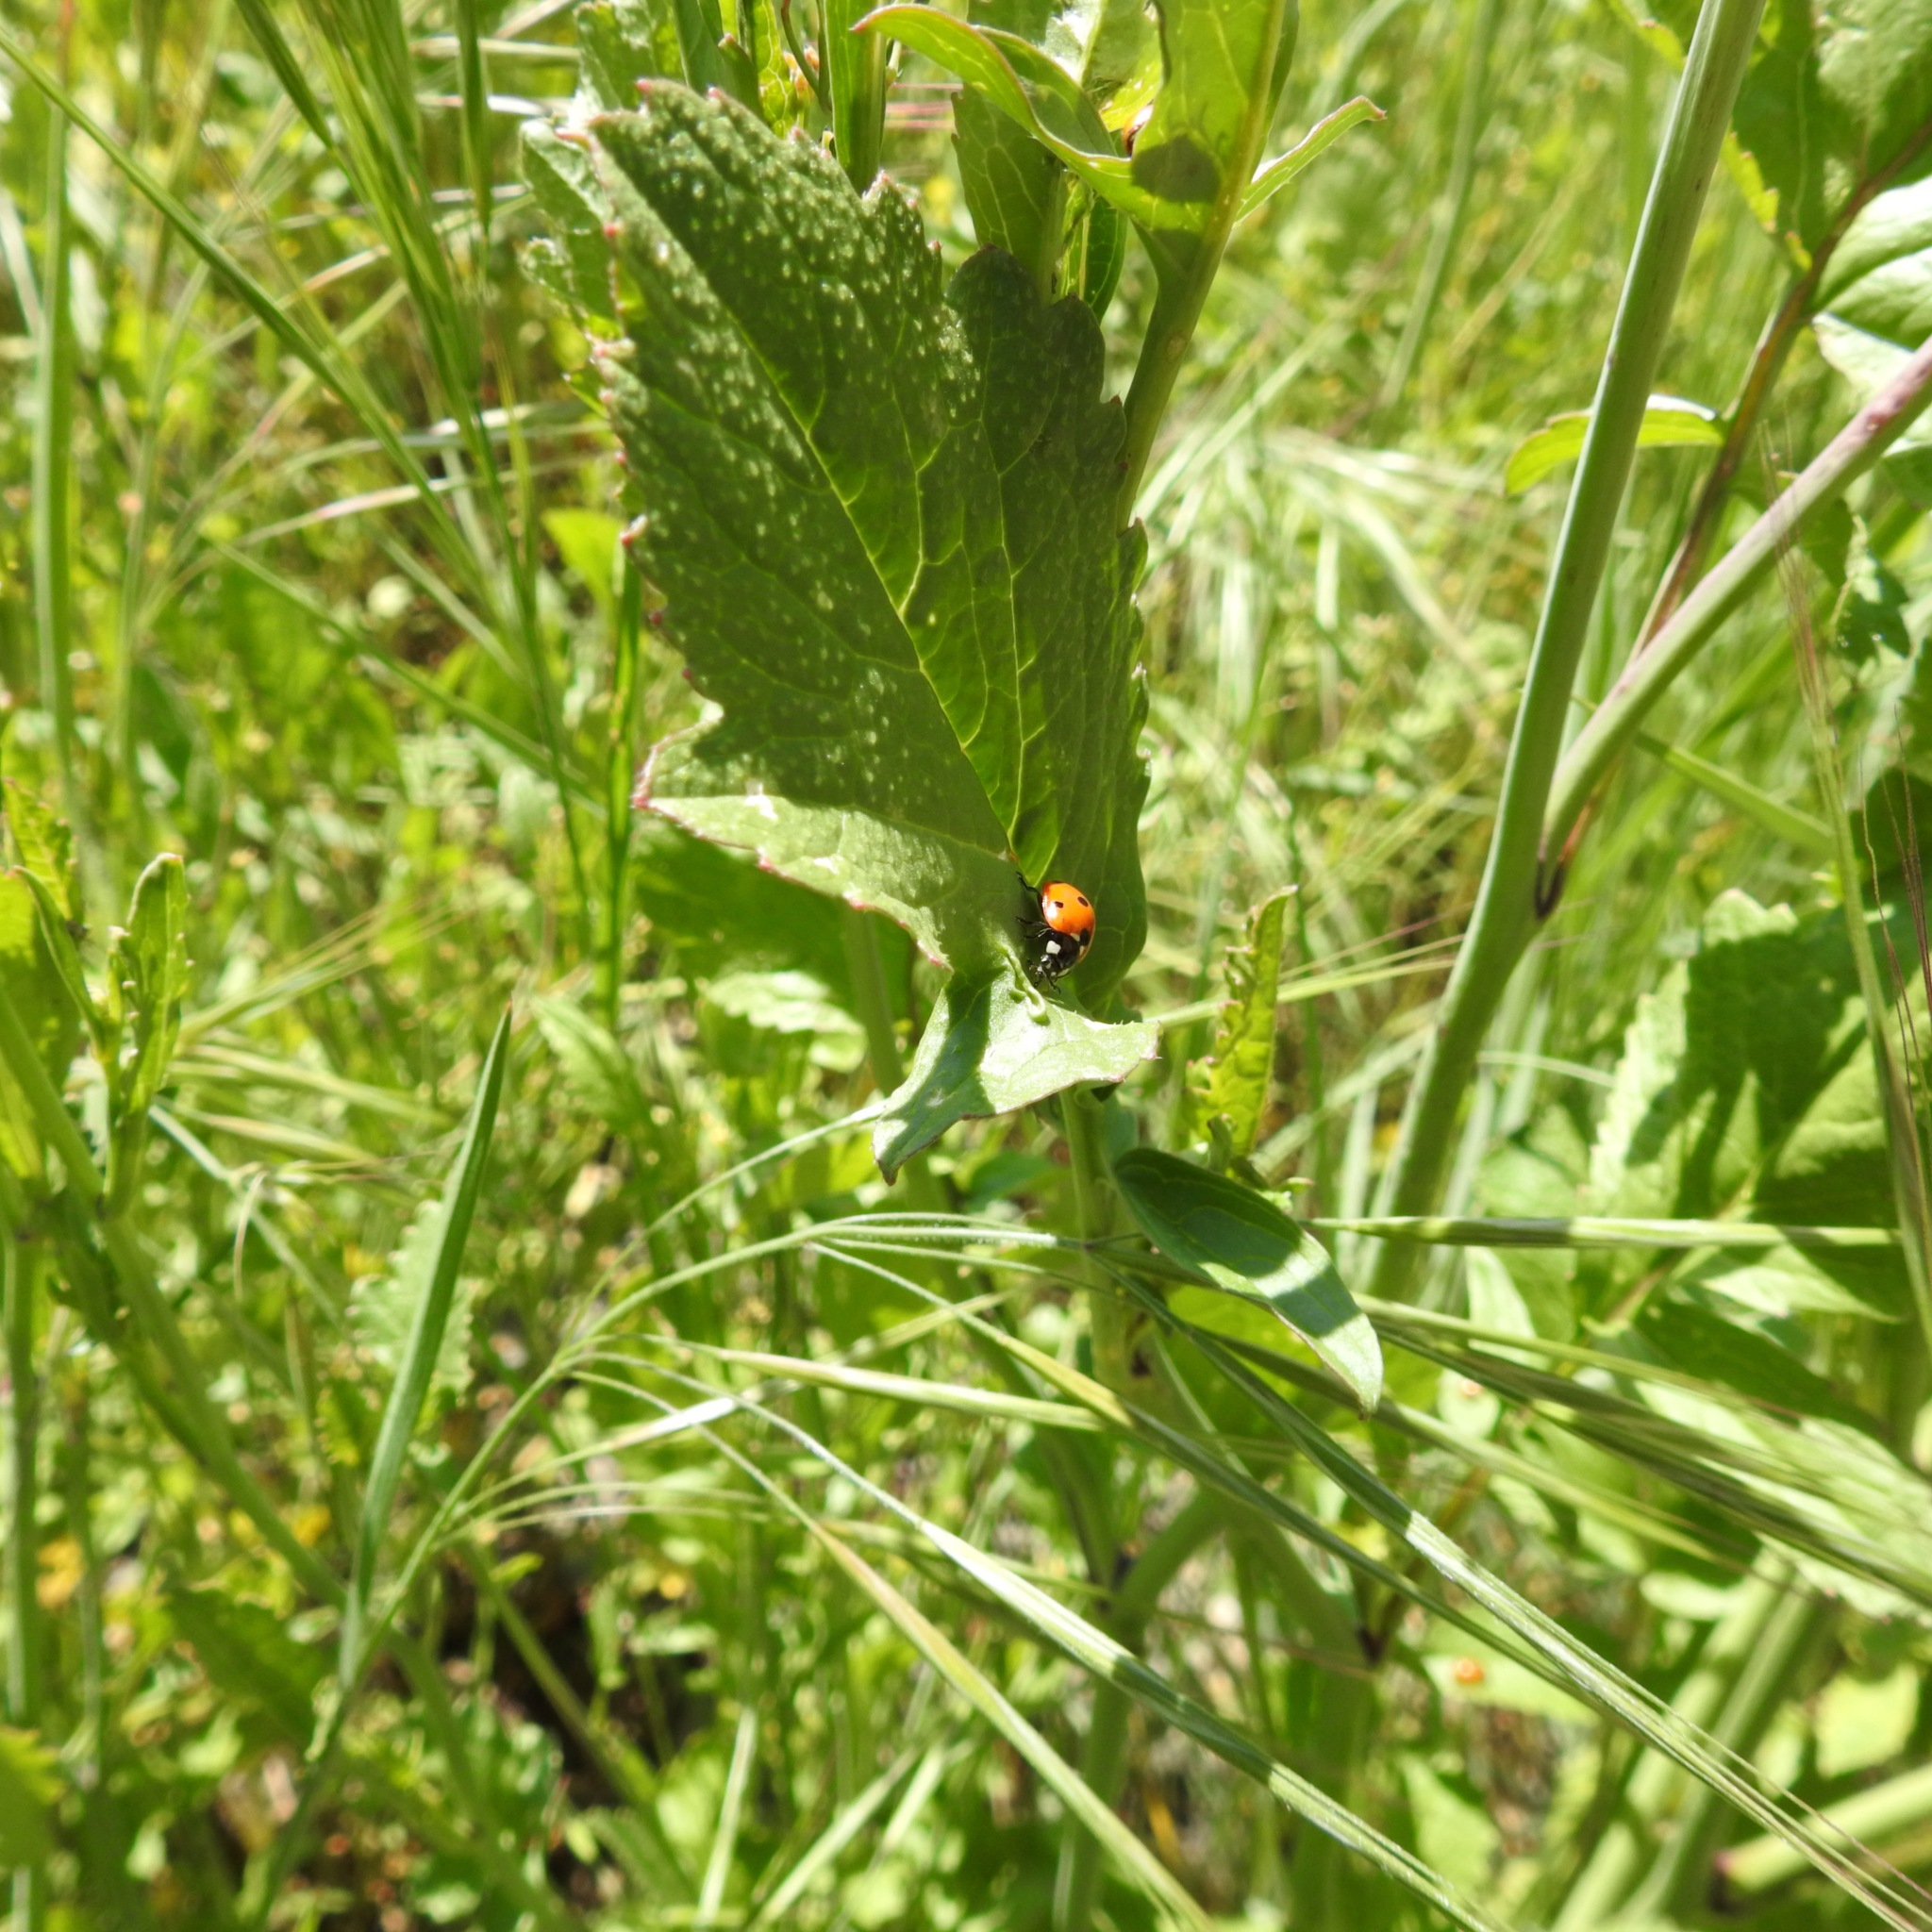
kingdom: Animalia
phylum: Arthropoda
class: Insecta
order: Coleoptera
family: Coccinellidae
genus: Coccinella
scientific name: Coccinella septempunctata
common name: Sevenspotted lady beetle
